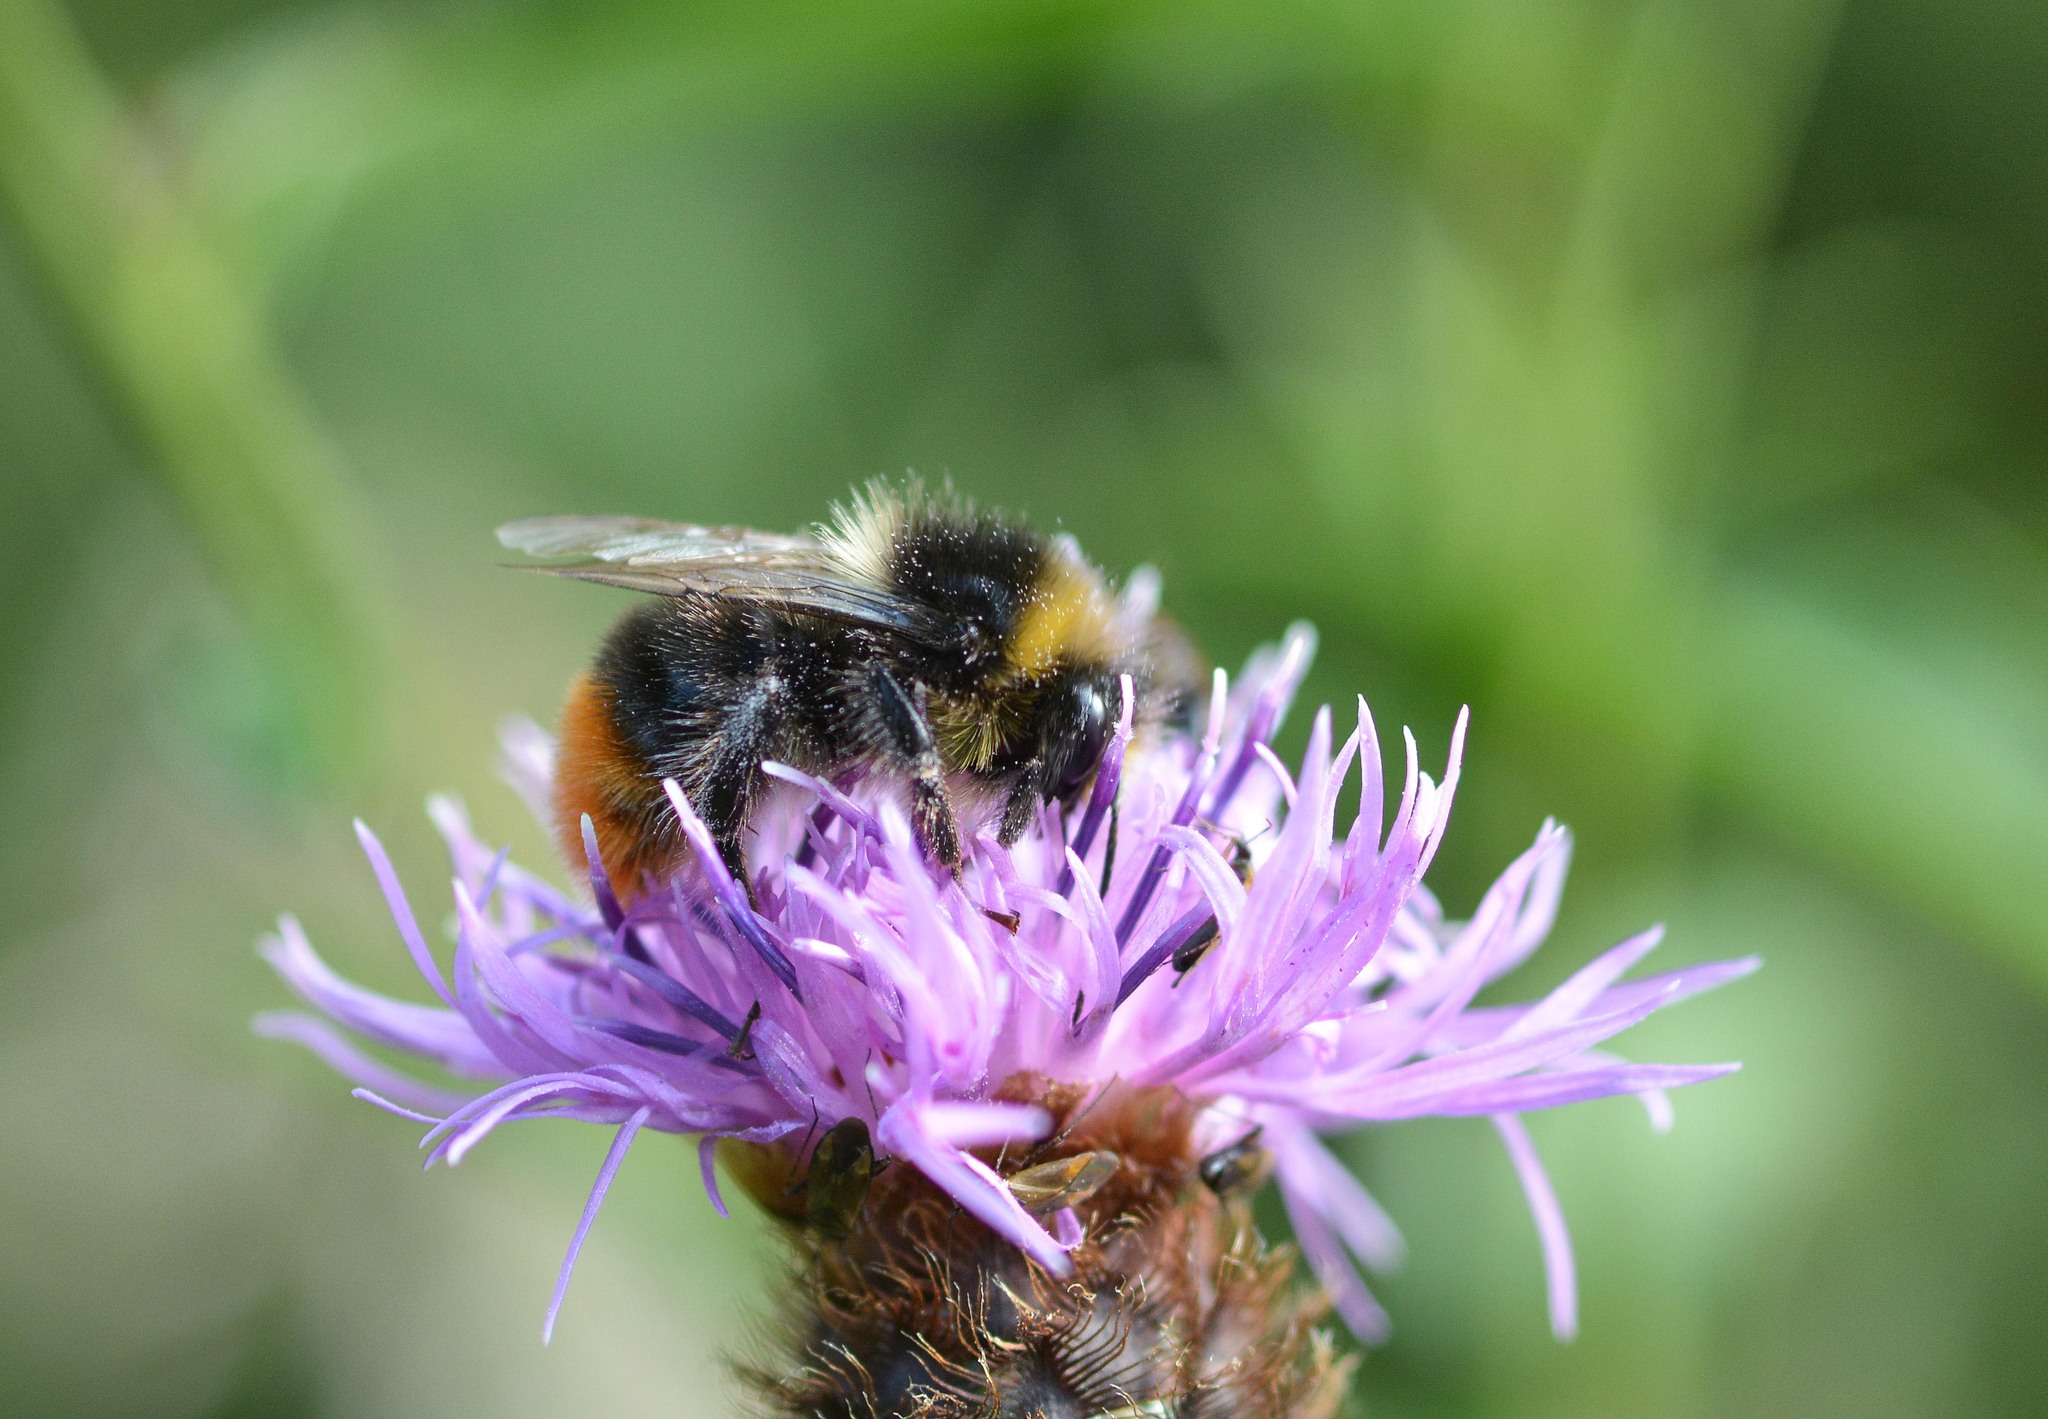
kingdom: Animalia
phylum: Arthropoda
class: Insecta
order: Hymenoptera
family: Apidae
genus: Bombus
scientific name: Bombus lapidarius
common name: Large red-tailed humble-bee
